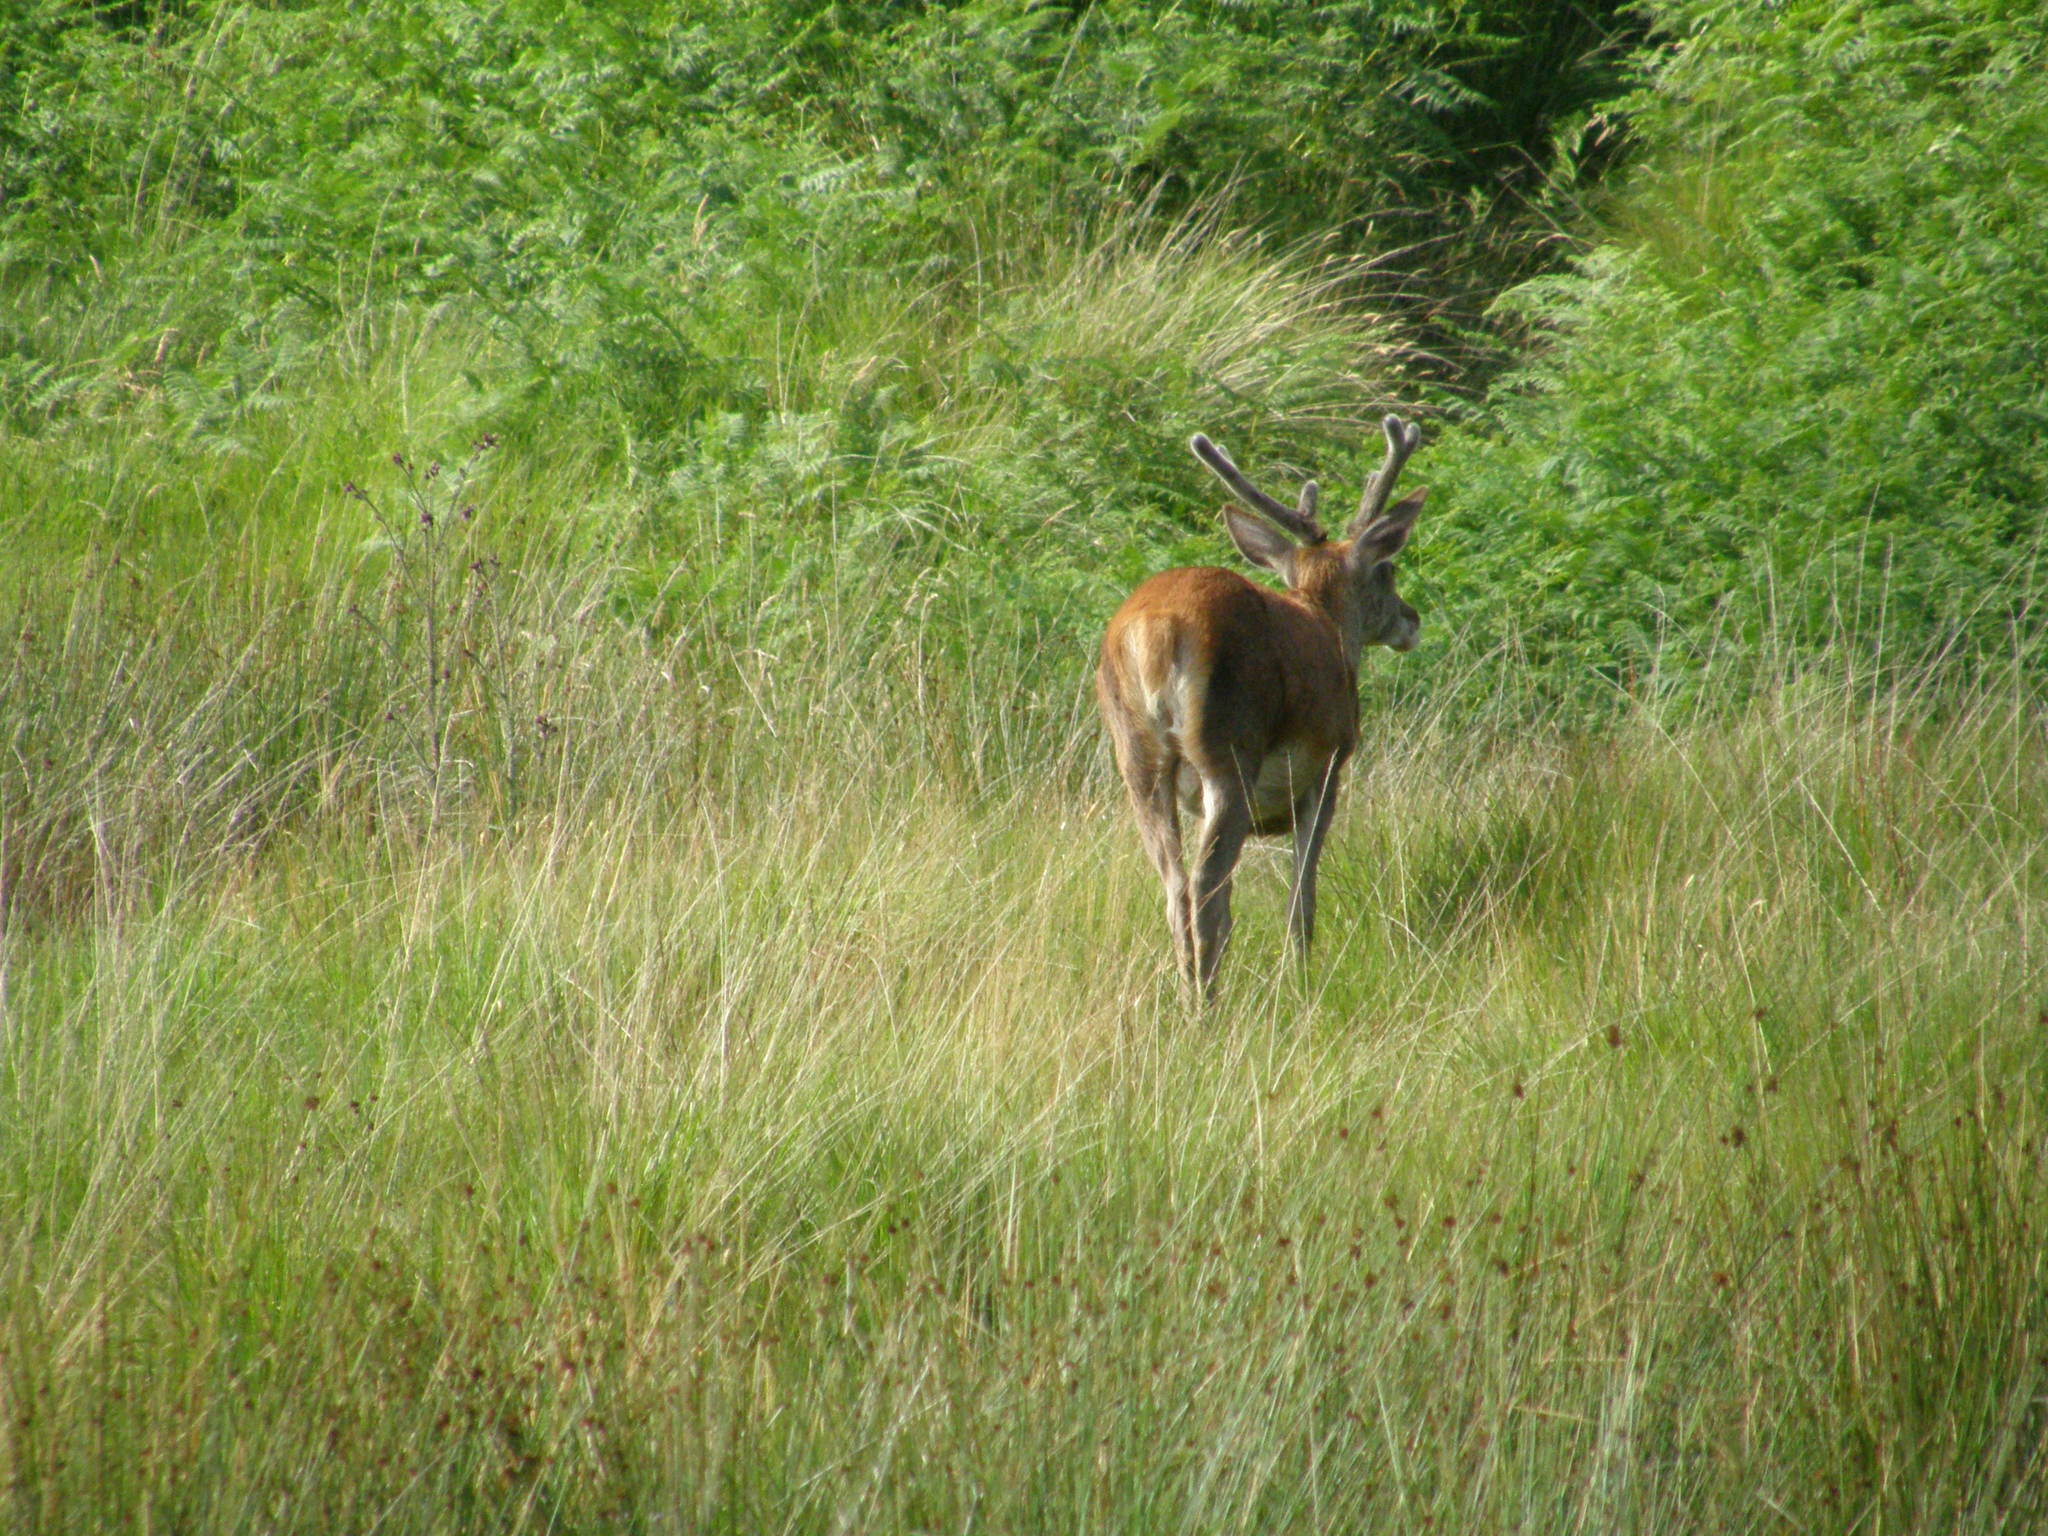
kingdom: Animalia
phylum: Chordata
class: Mammalia
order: Artiodactyla
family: Cervidae
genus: Cervus
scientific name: Cervus elaphus
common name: Red deer
